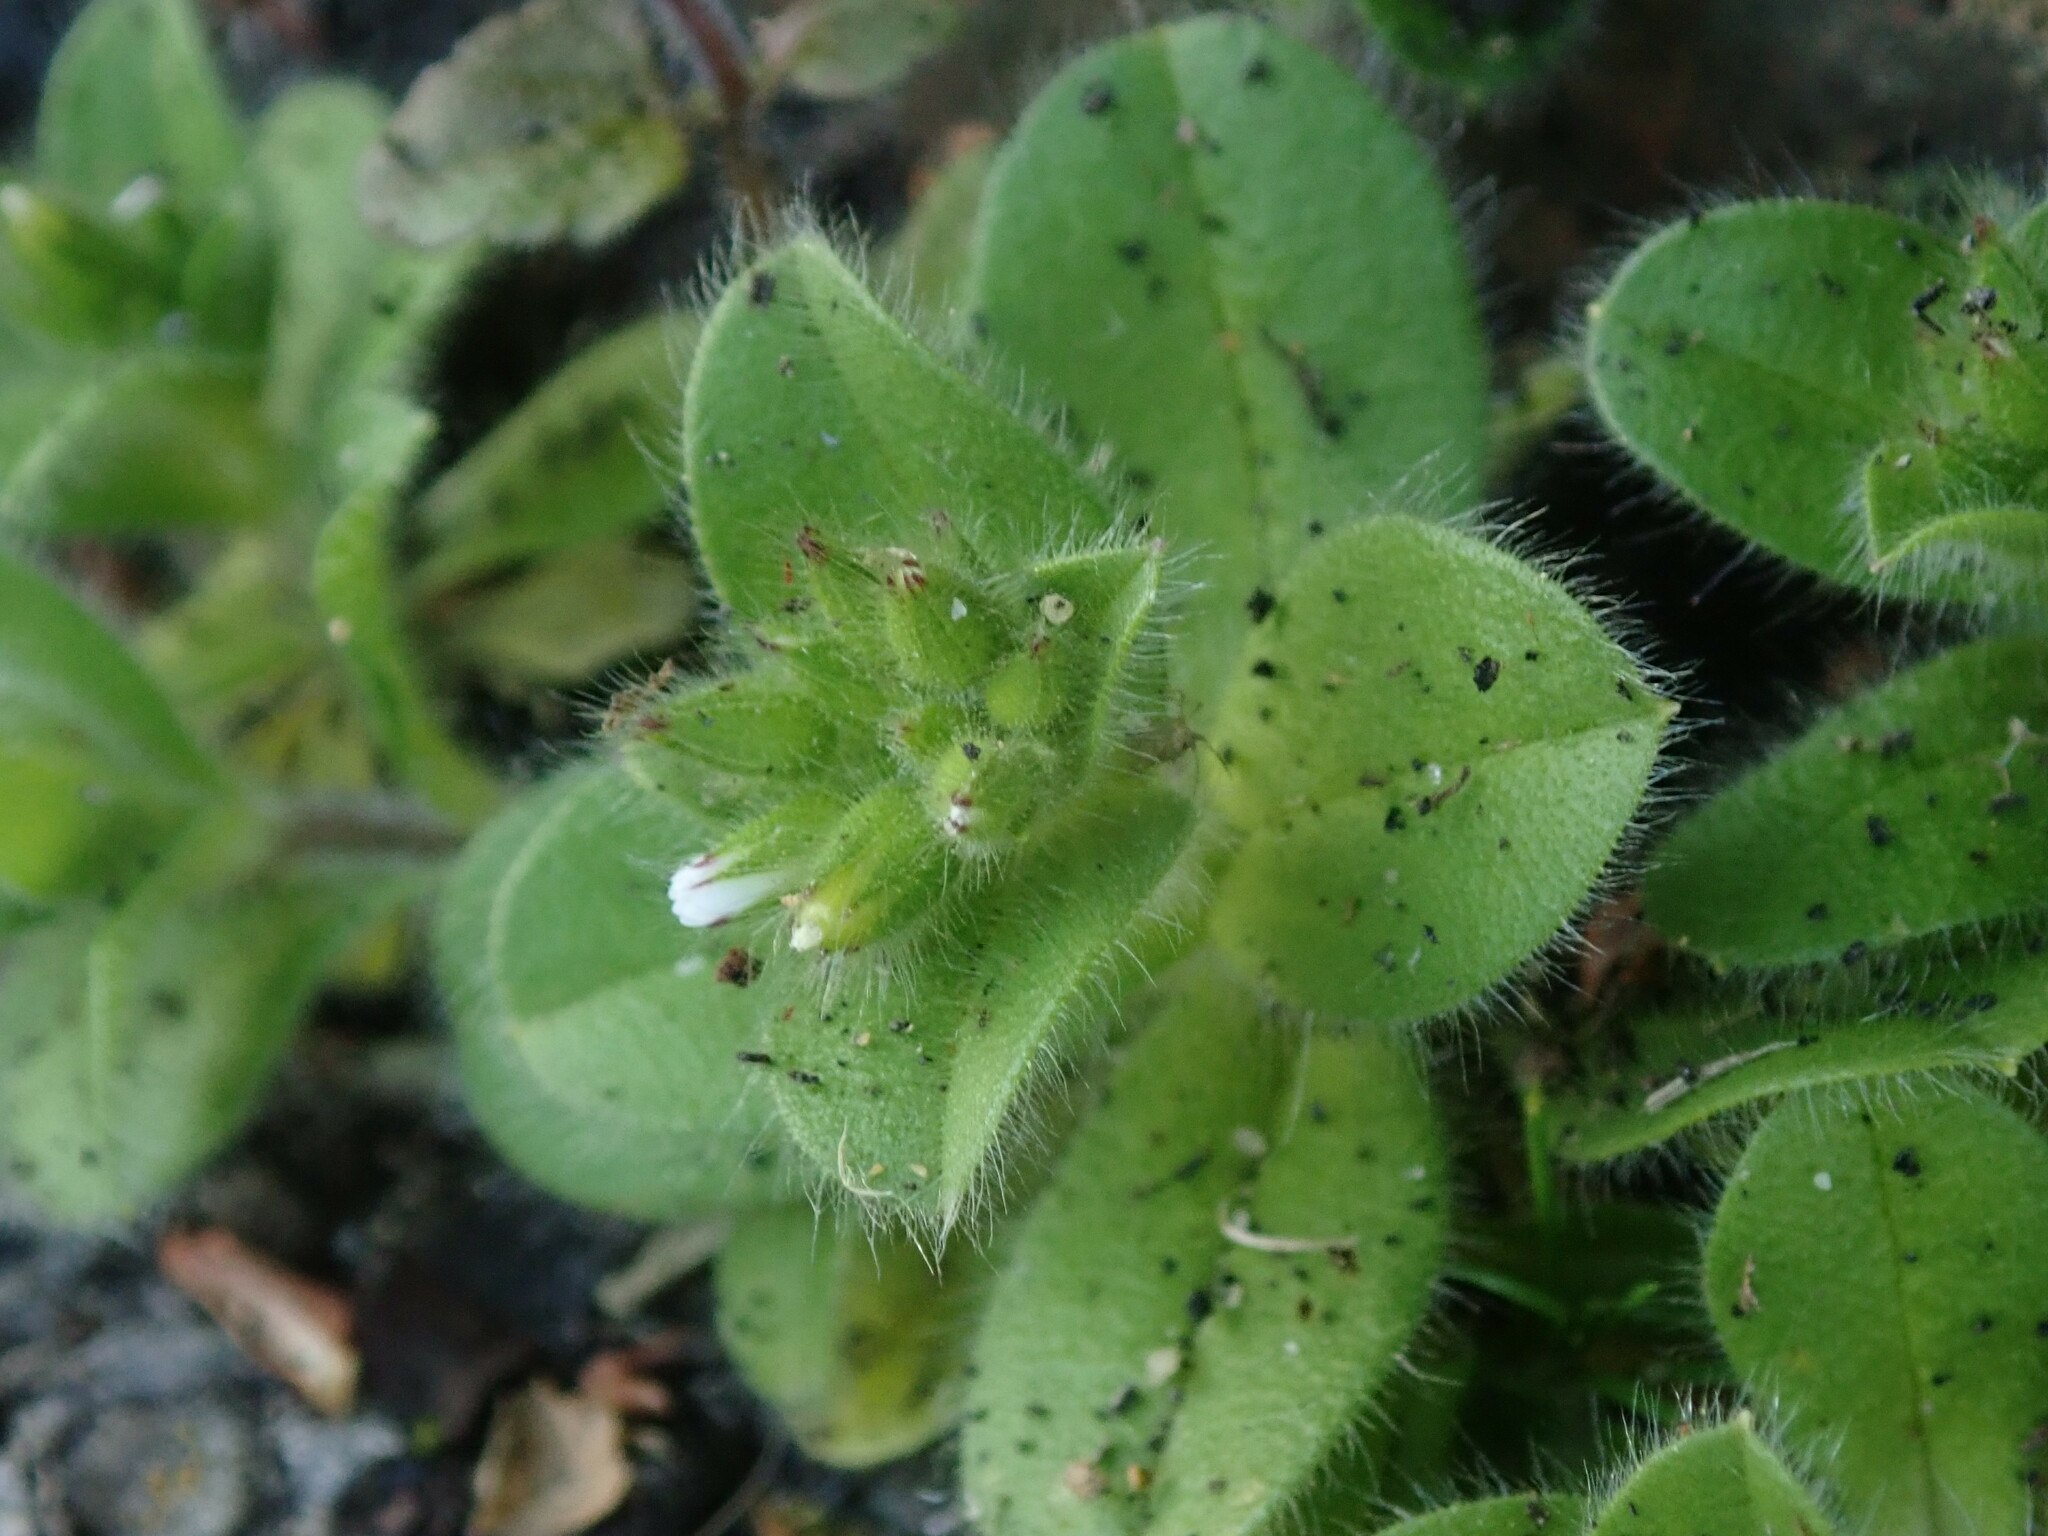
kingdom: Plantae
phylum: Tracheophyta
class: Magnoliopsida
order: Caryophyllales
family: Caryophyllaceae
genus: Cerastium
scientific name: Cerastium glomeratum
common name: Sticky chickweed
